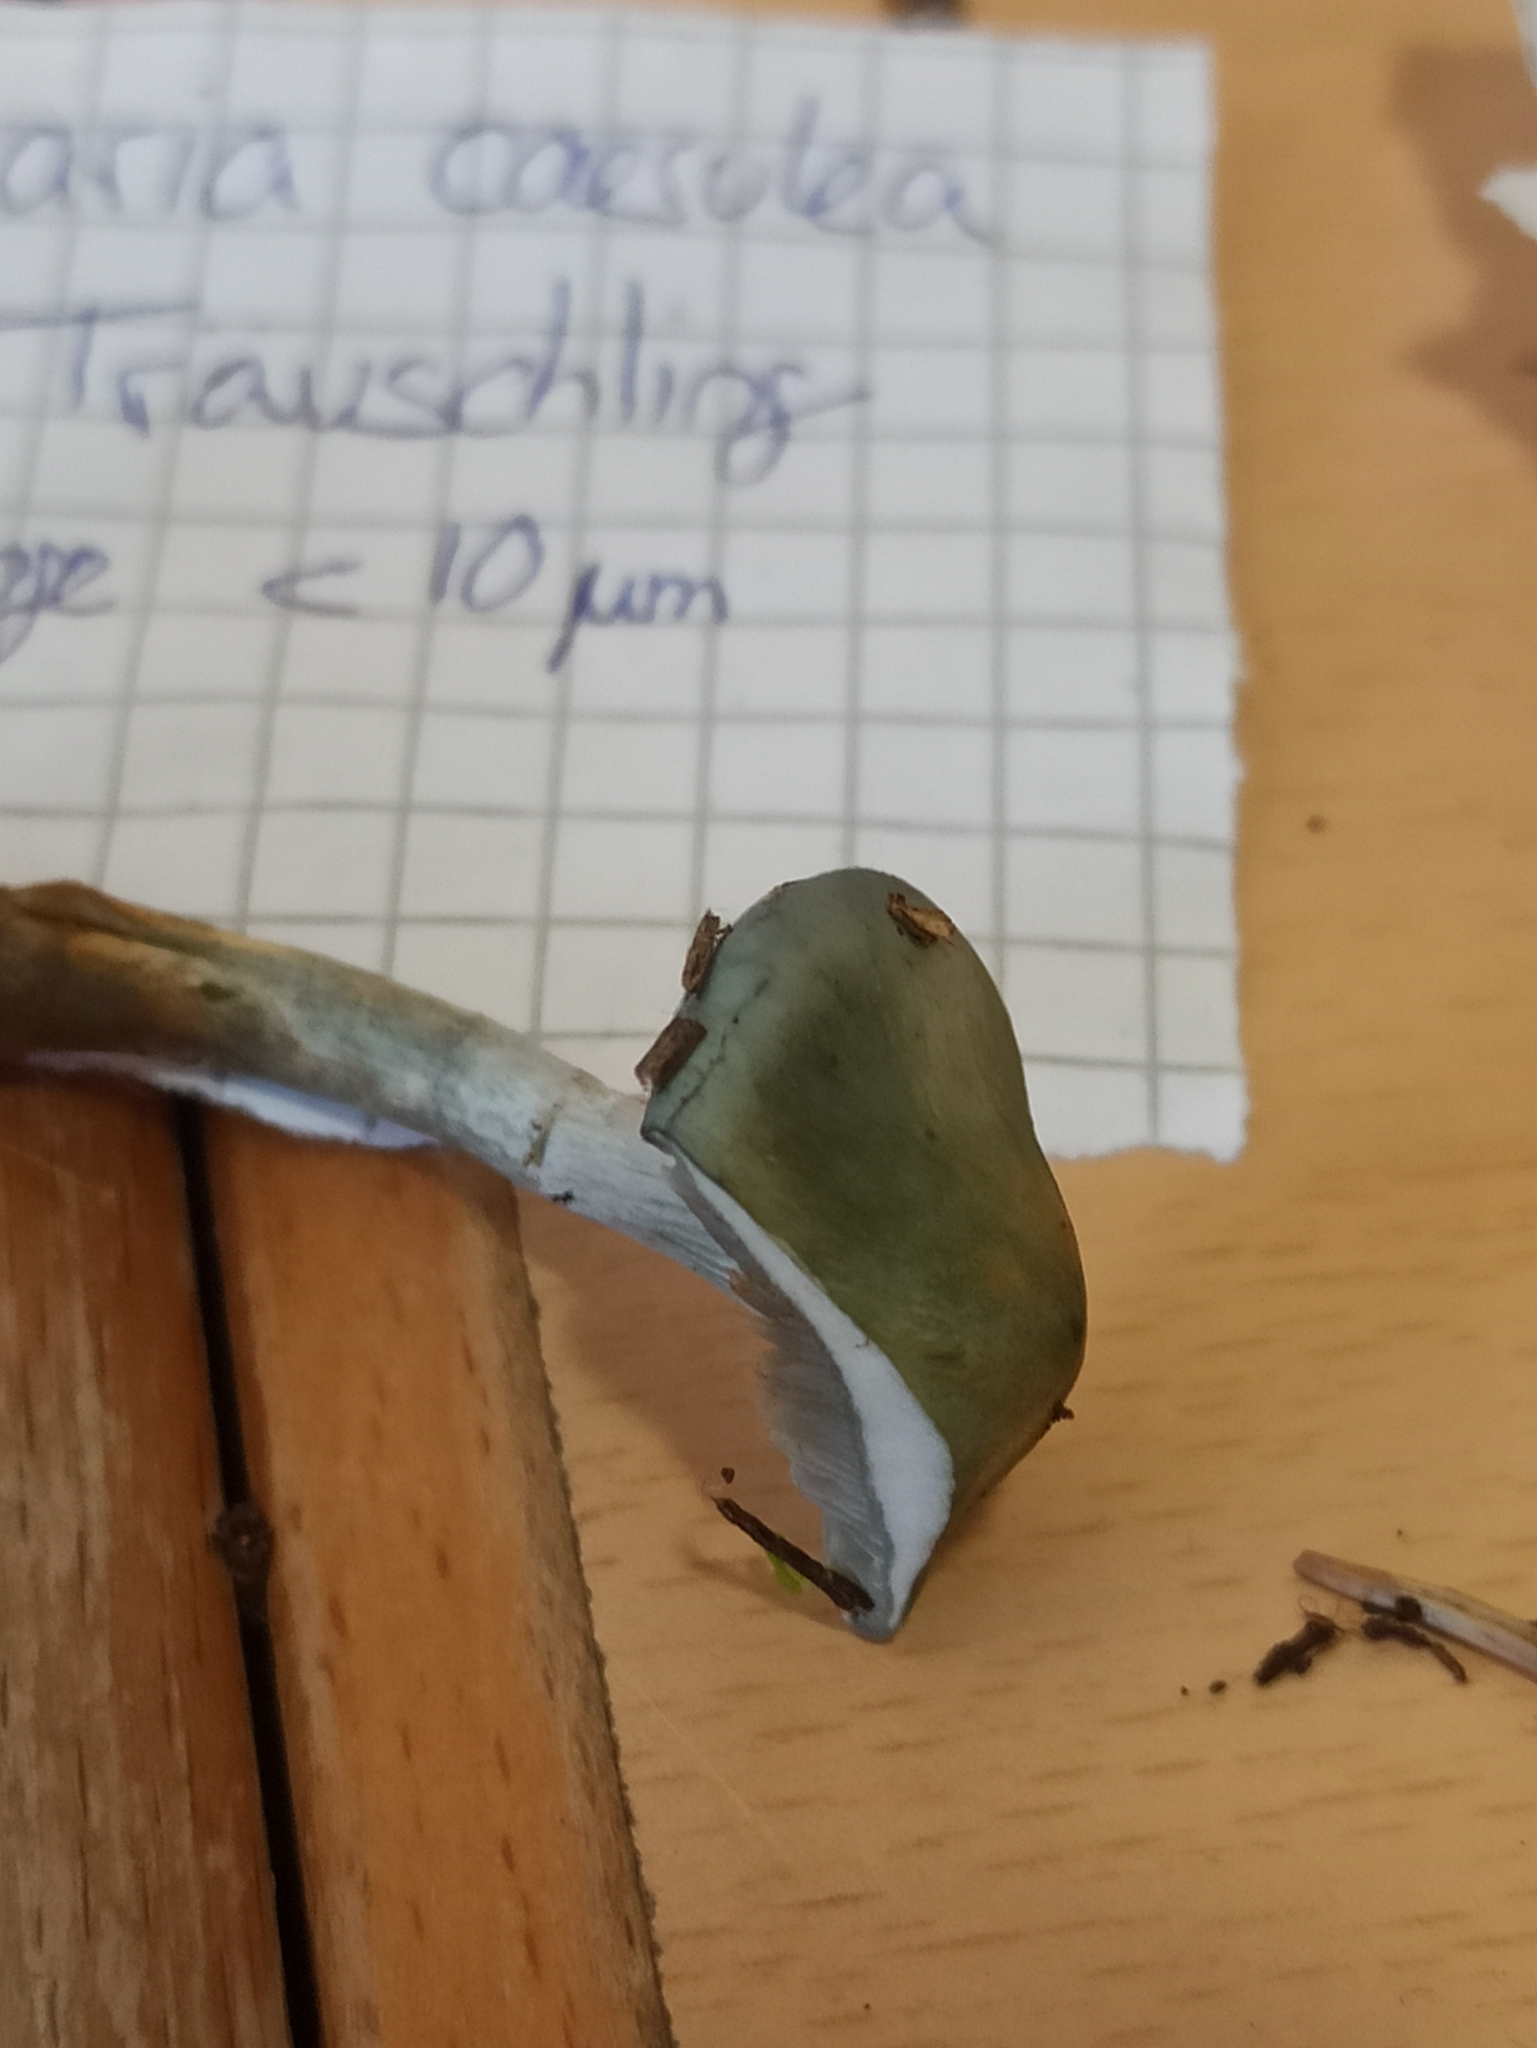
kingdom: Fungi
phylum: Basidiomycota
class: Agaricomycetes
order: Agaricales
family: Strophariaceae
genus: Stropharia
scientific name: Stropharia caerulea
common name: Blue roundhead
